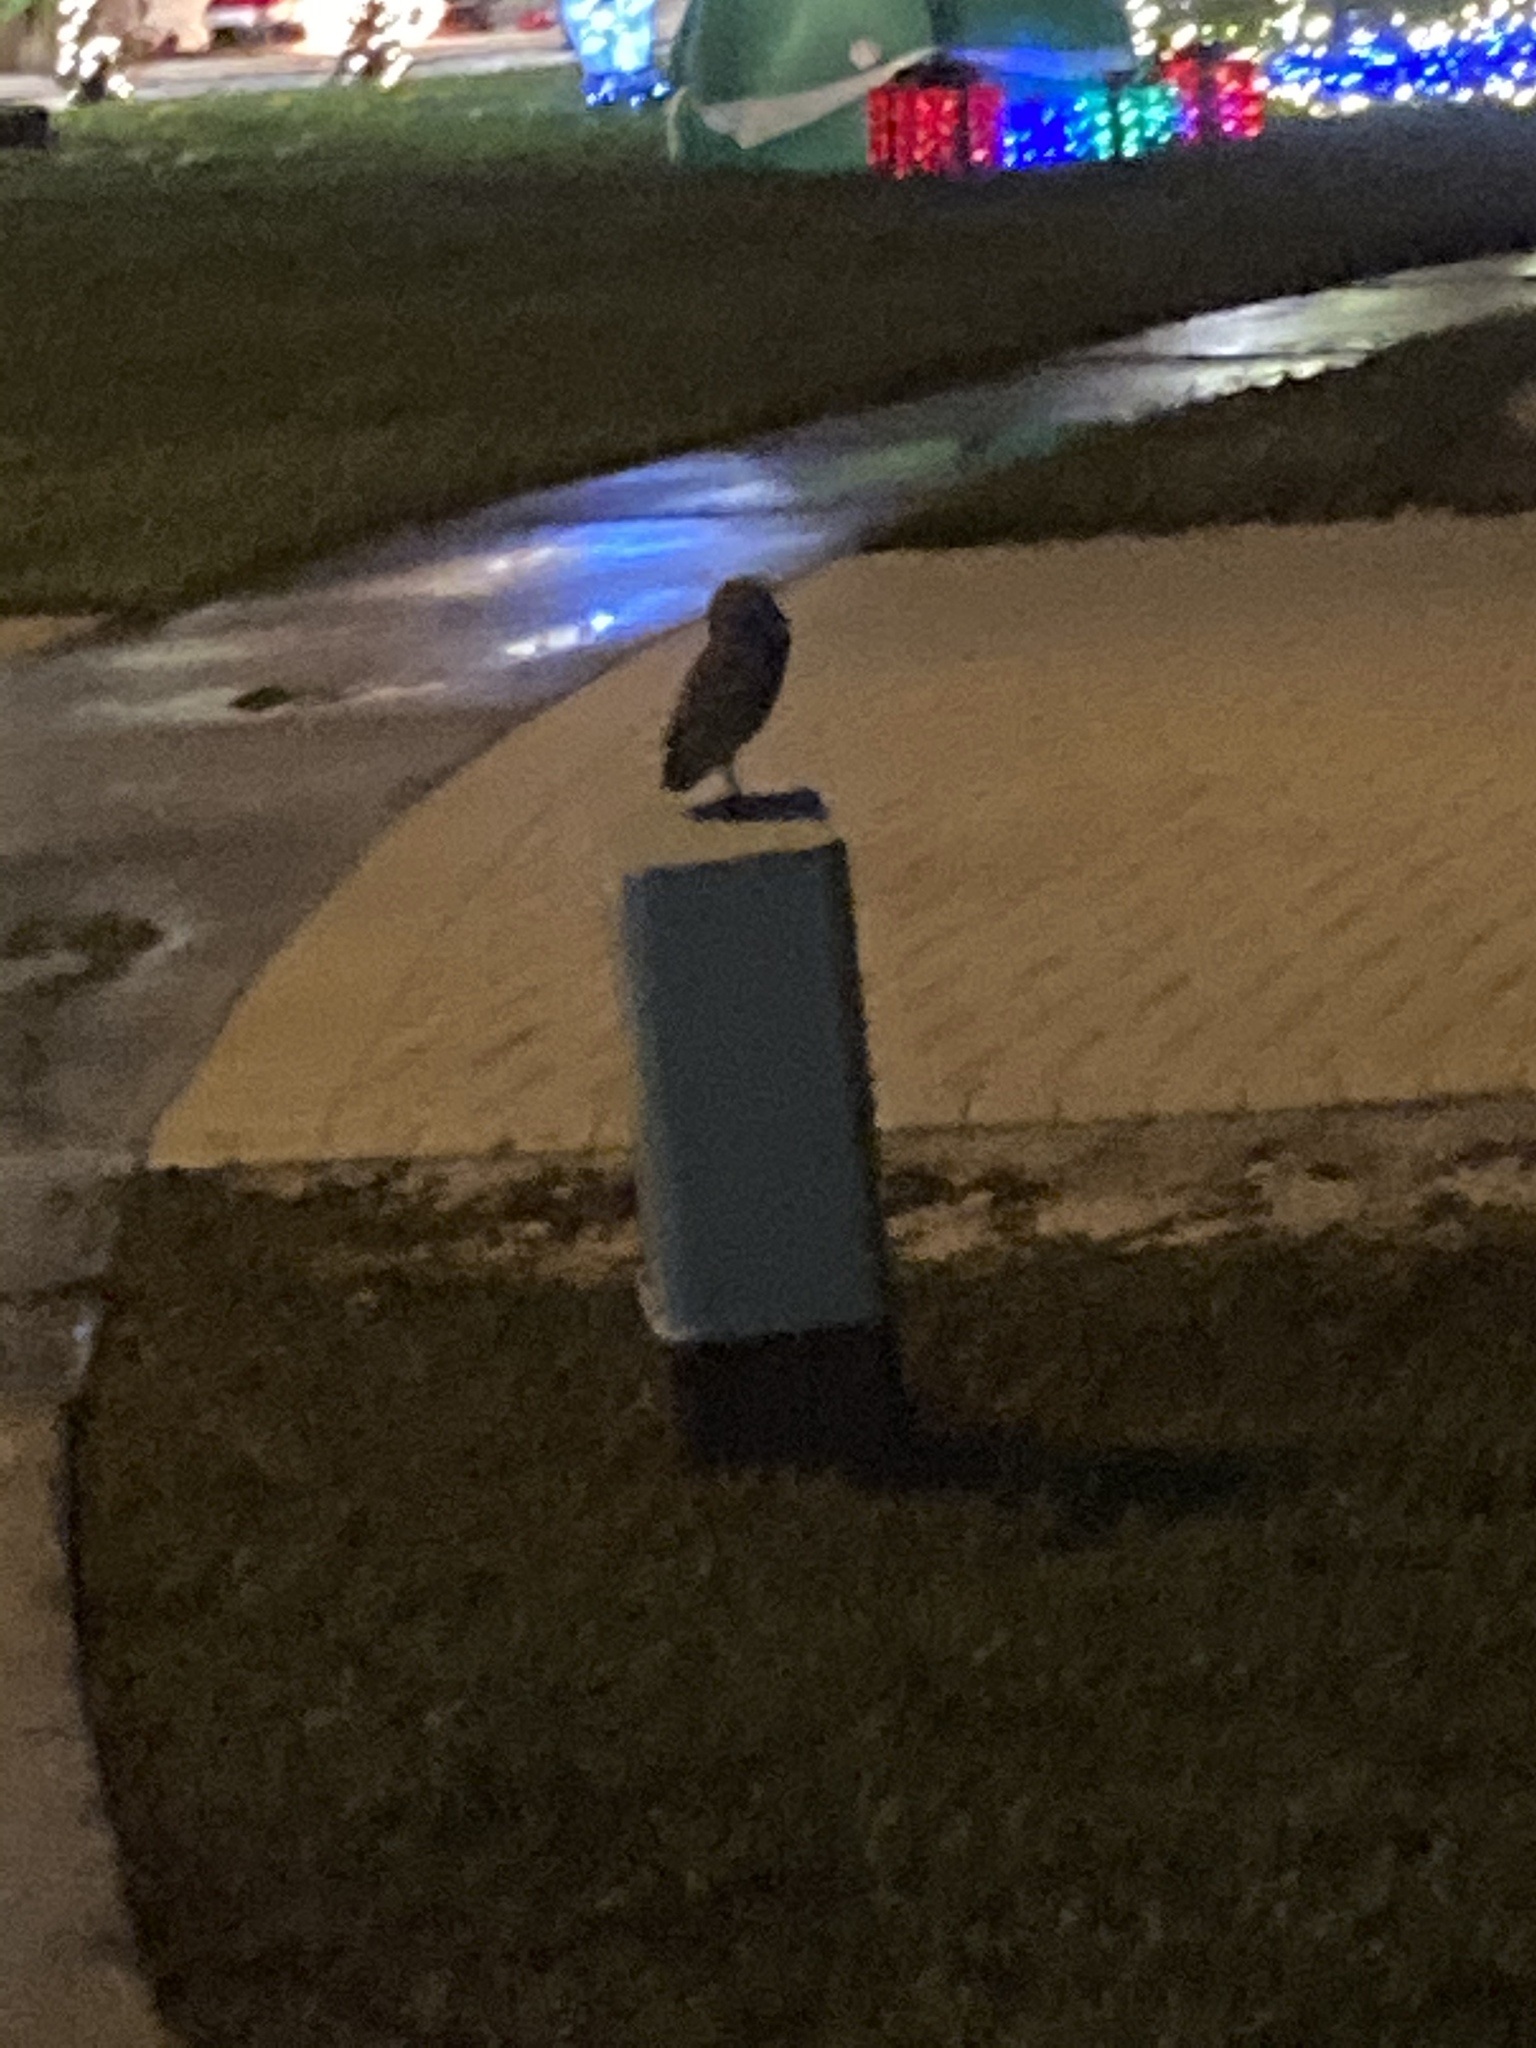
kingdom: Animalia
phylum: Chordata
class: Aves
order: Strigiformes
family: Strigidae
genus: Athene
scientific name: Athene cunicularia
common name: Burrowing owl
